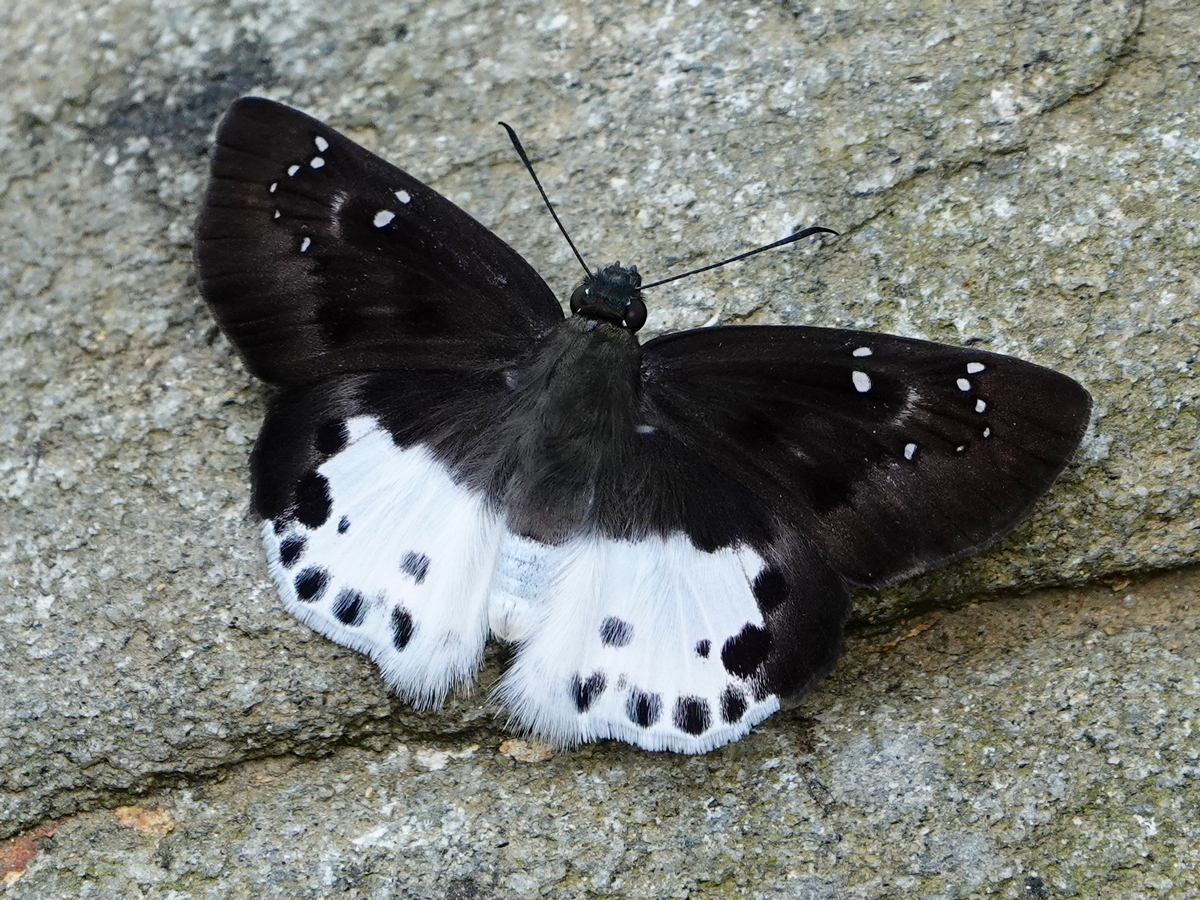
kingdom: Animalia
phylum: Arthropoda
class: Insecta
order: Lepidoptera
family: Hesperiidae
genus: Tagiades
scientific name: Tagiades menaka
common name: Dark-edged snow flat
